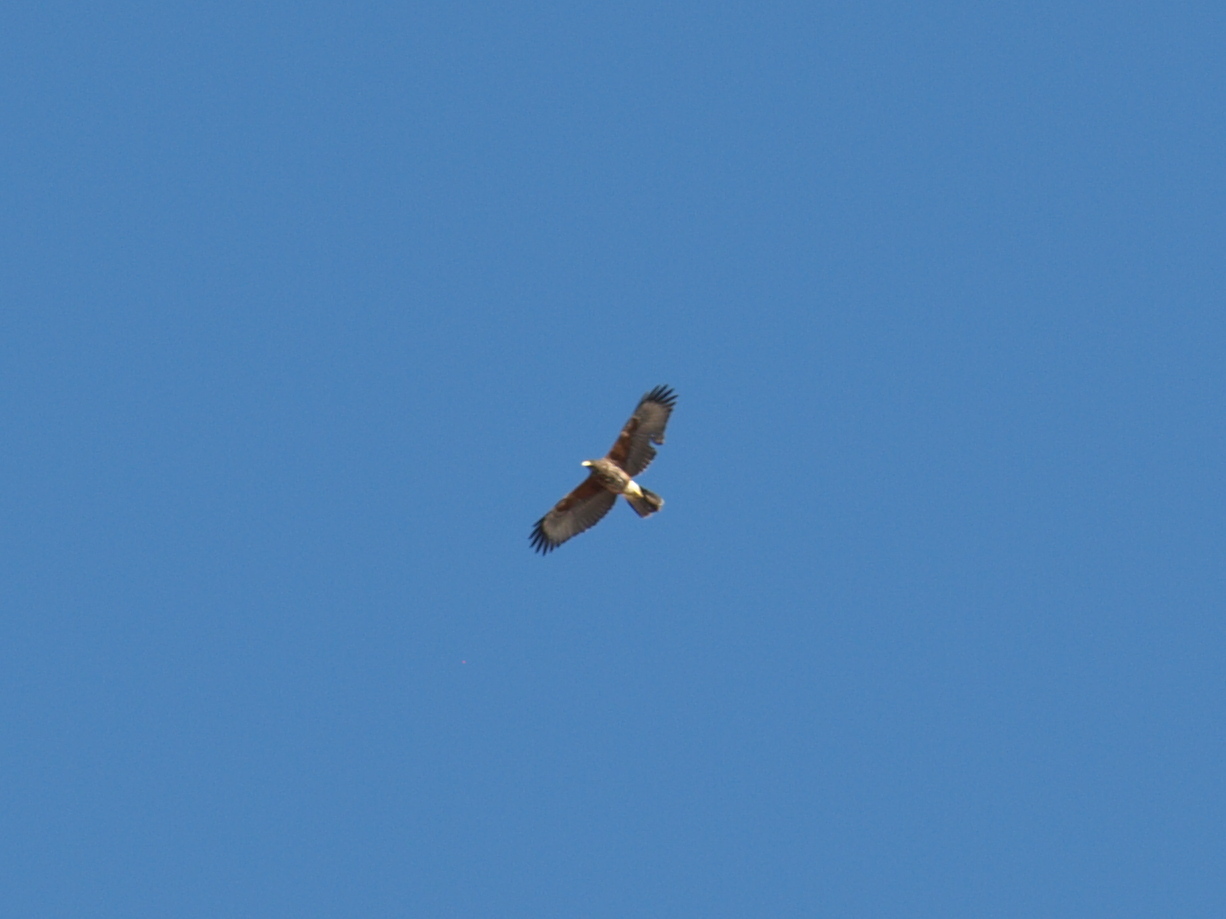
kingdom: Animalia
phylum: Chordata
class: Aves
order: Accipitriformes
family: Accipitridae
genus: Parabuteo
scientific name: Parabuteo unicinctus
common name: Harris's hawk
